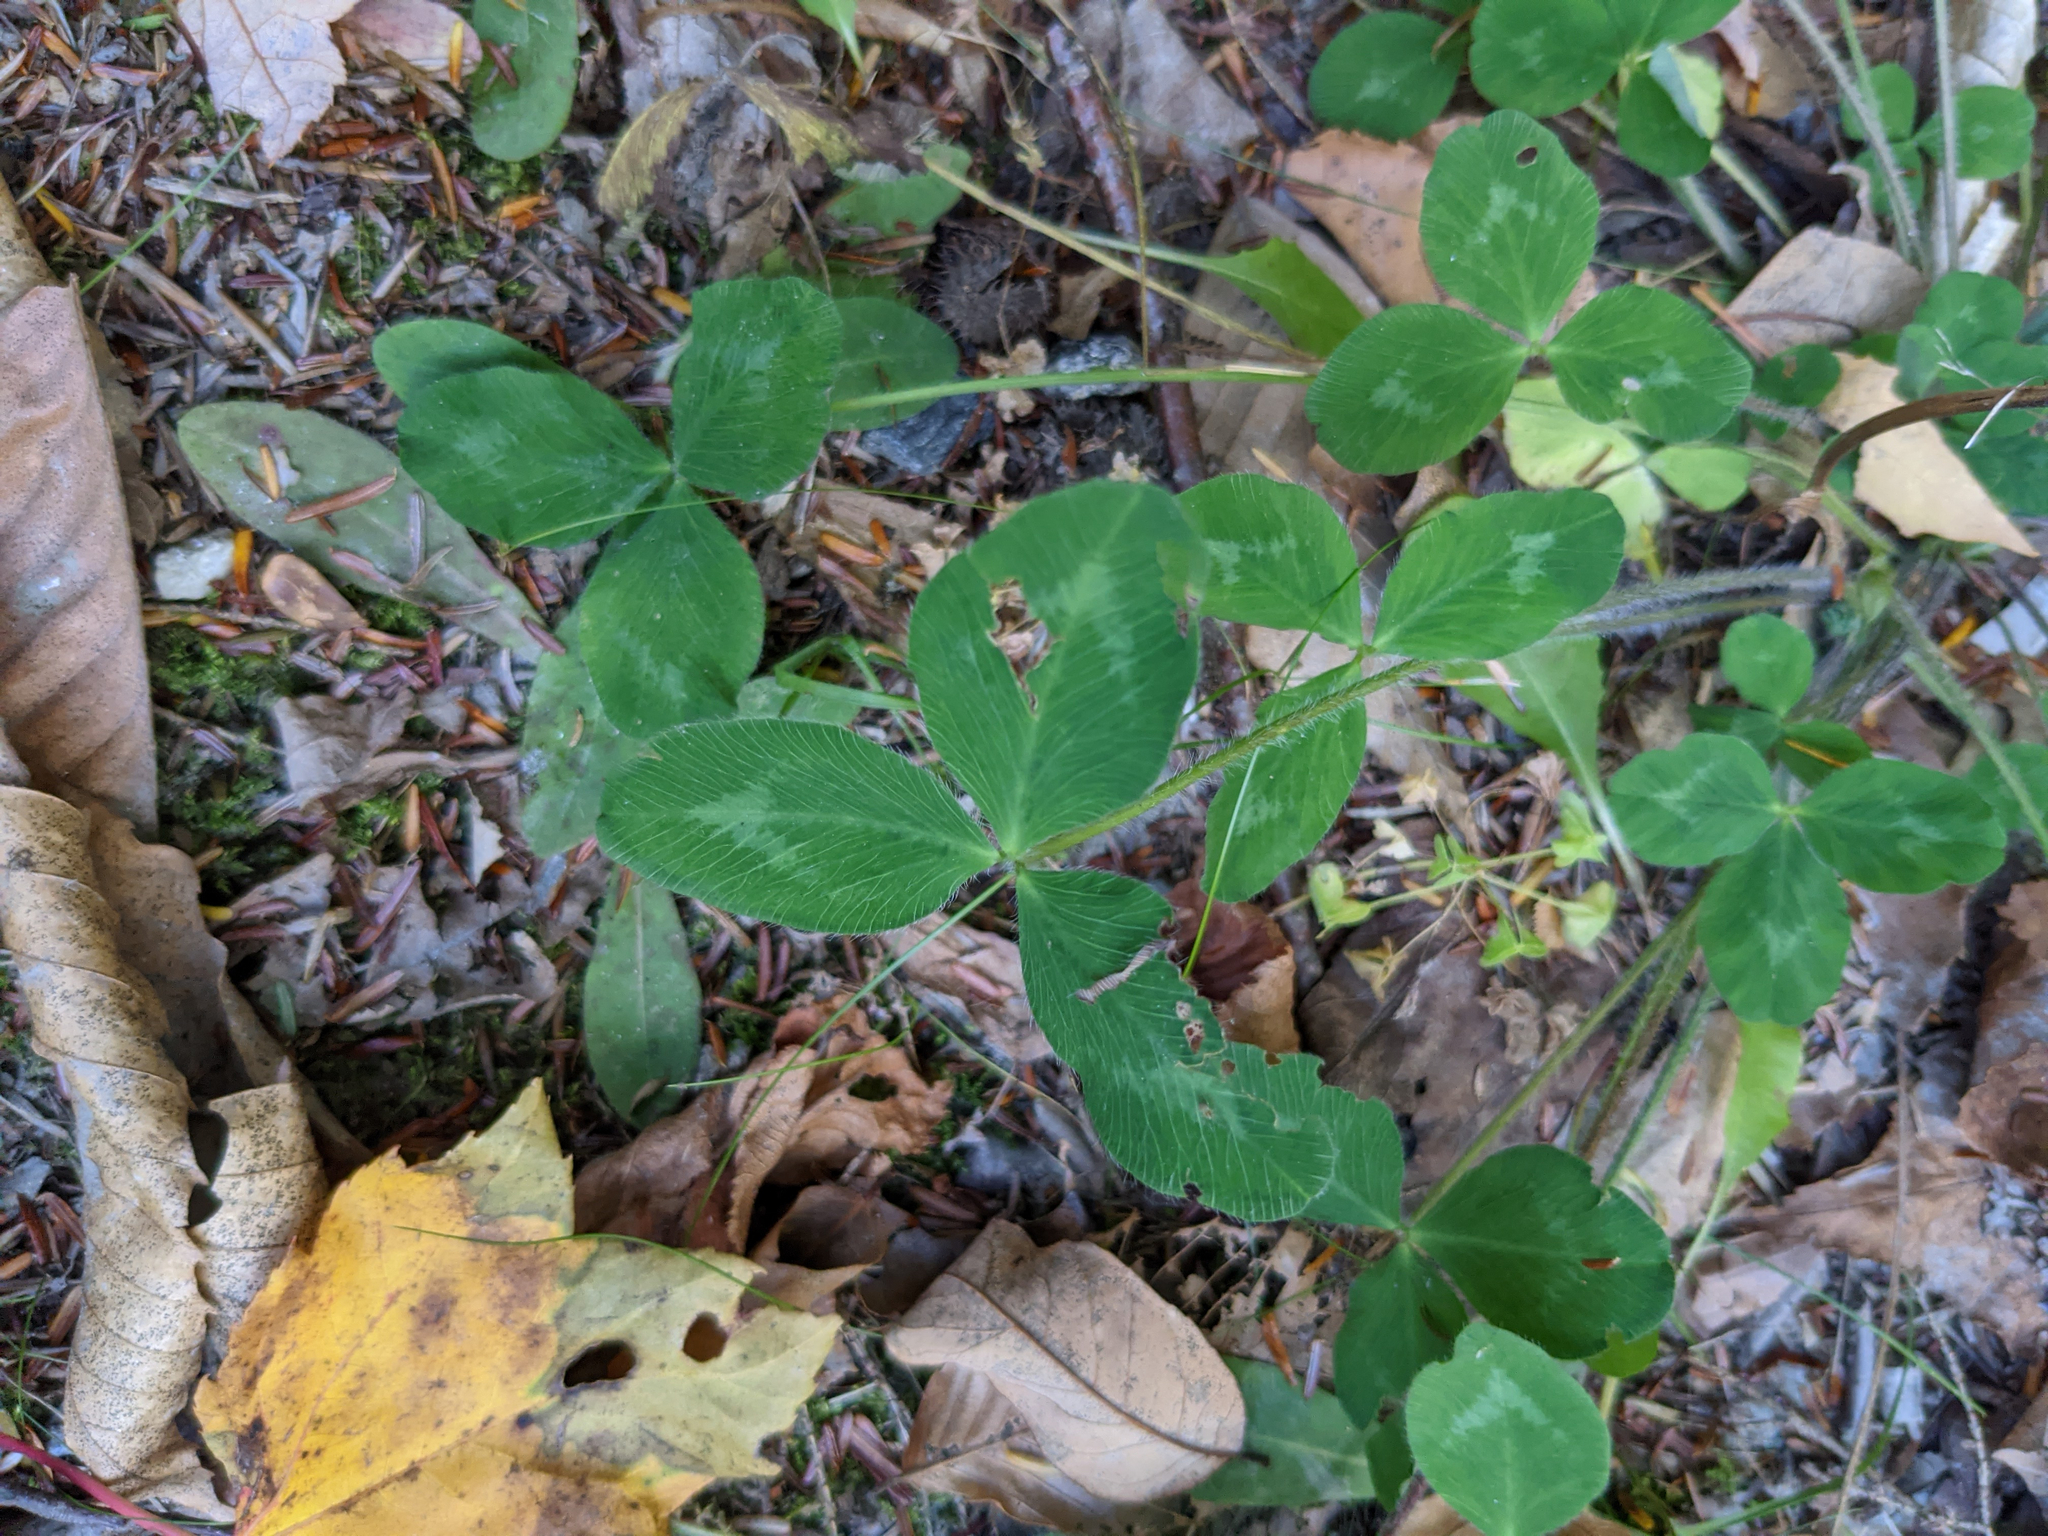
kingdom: Plantae
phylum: Tracheophyta
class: Magnoliopsida
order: Fabales
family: Fabaceae
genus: Trifolium
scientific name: Trifolium pratense
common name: Red clover
